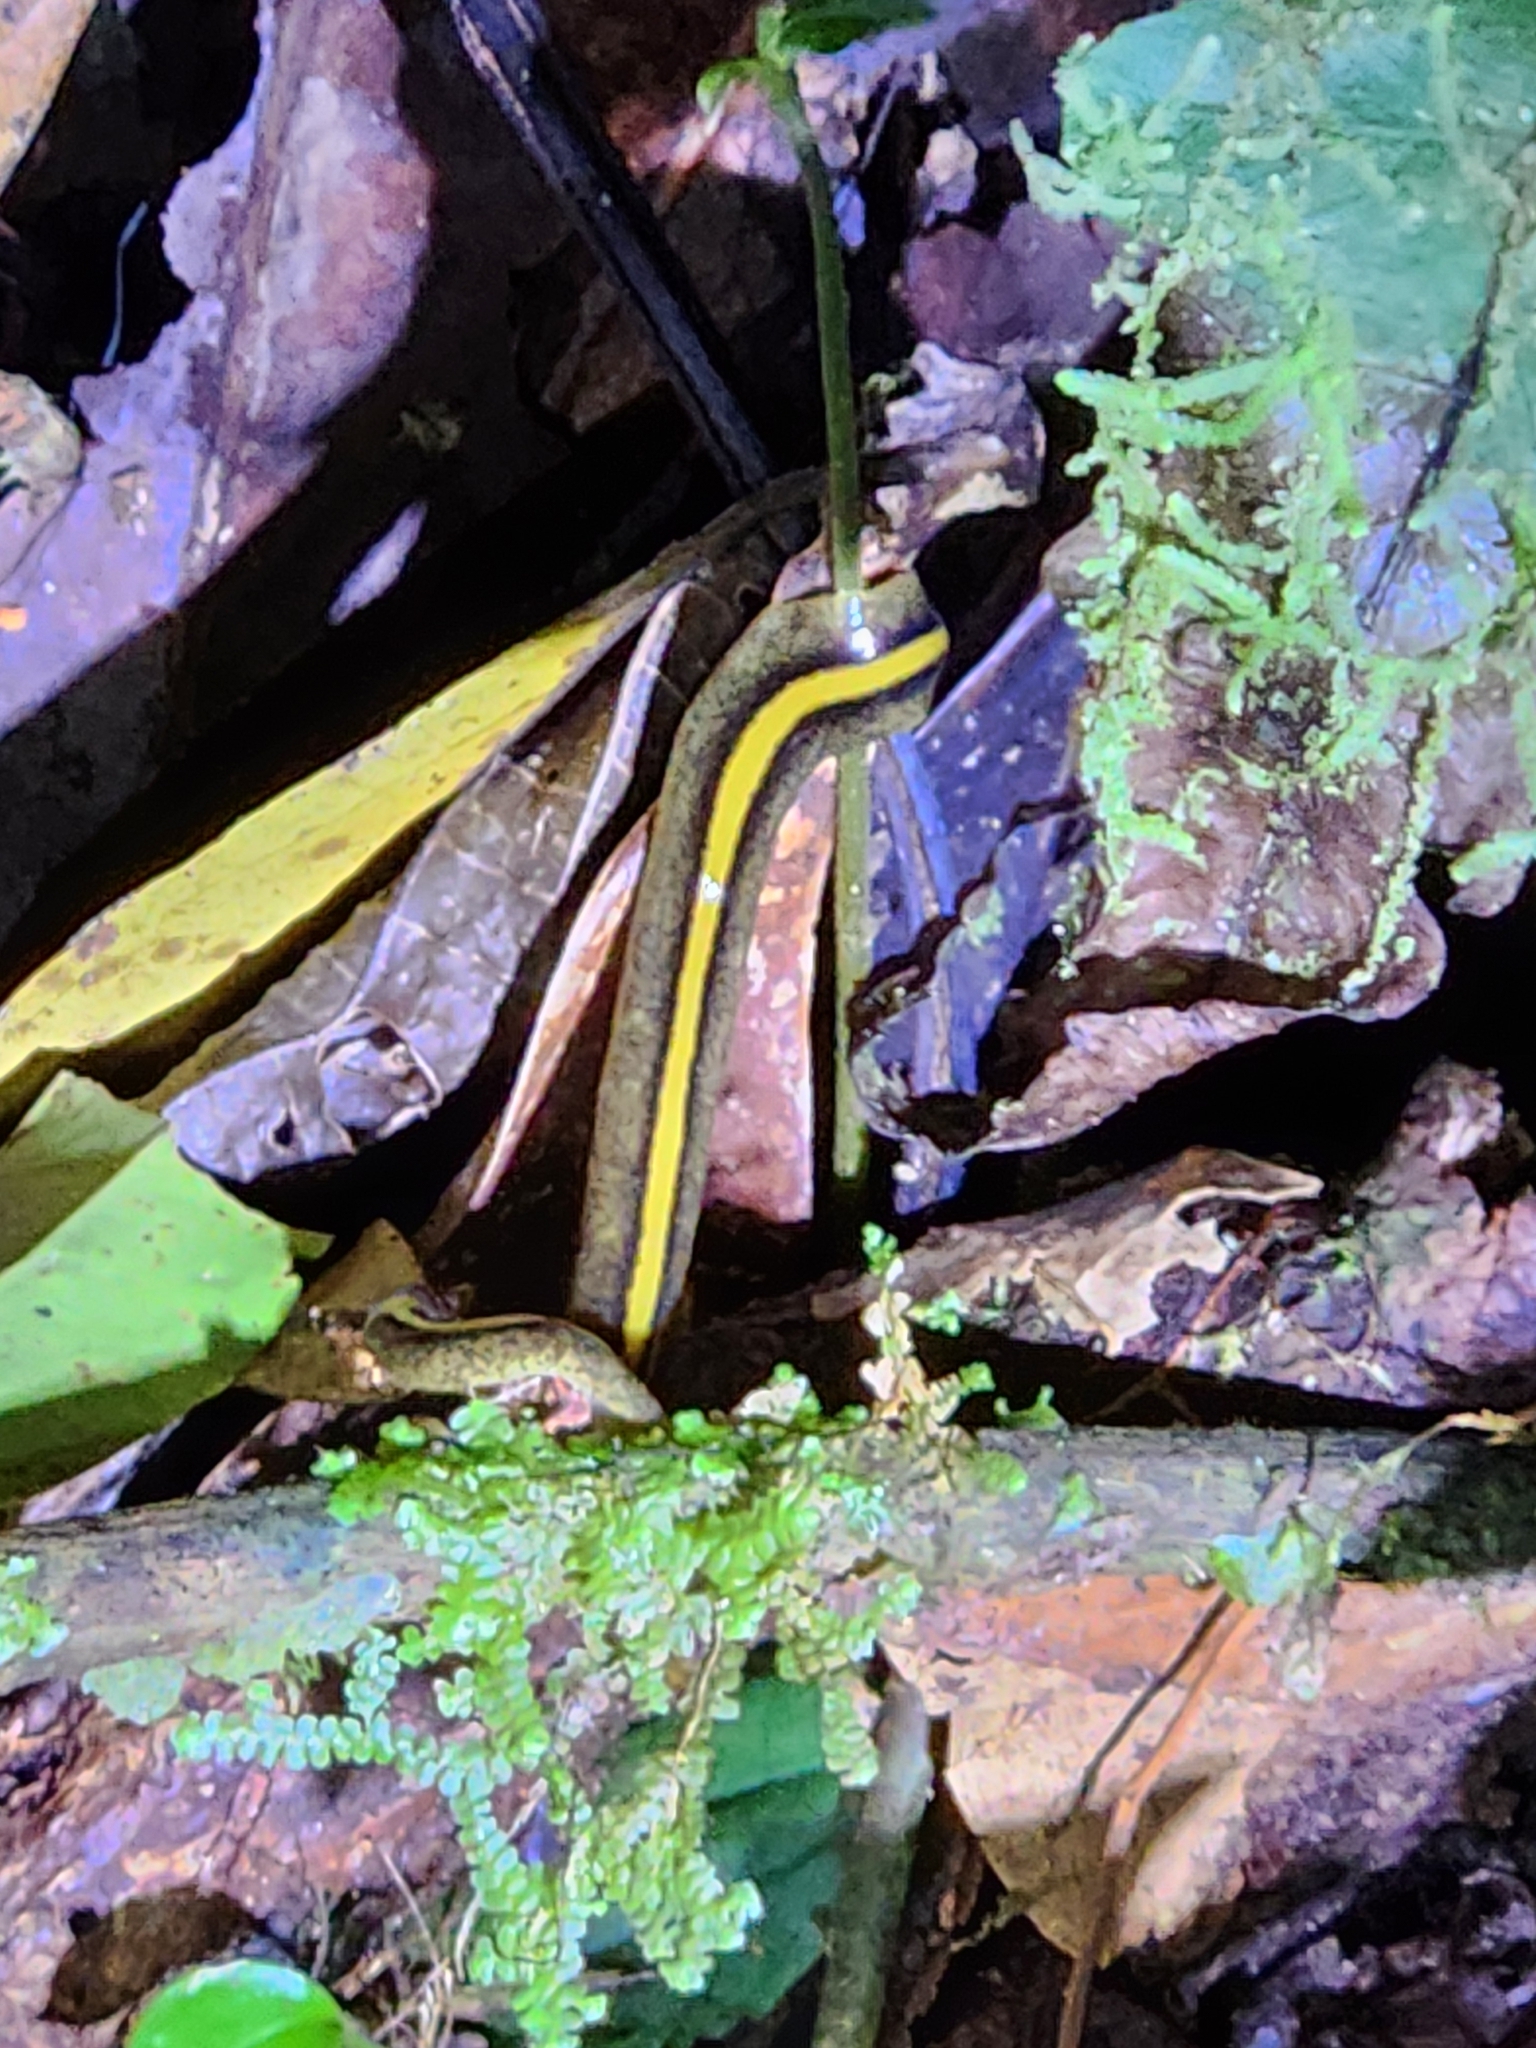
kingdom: Animalia
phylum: Platyhelminthes
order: Tricladida
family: Geoplanidae
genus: Gigantea
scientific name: Gigantea montana
